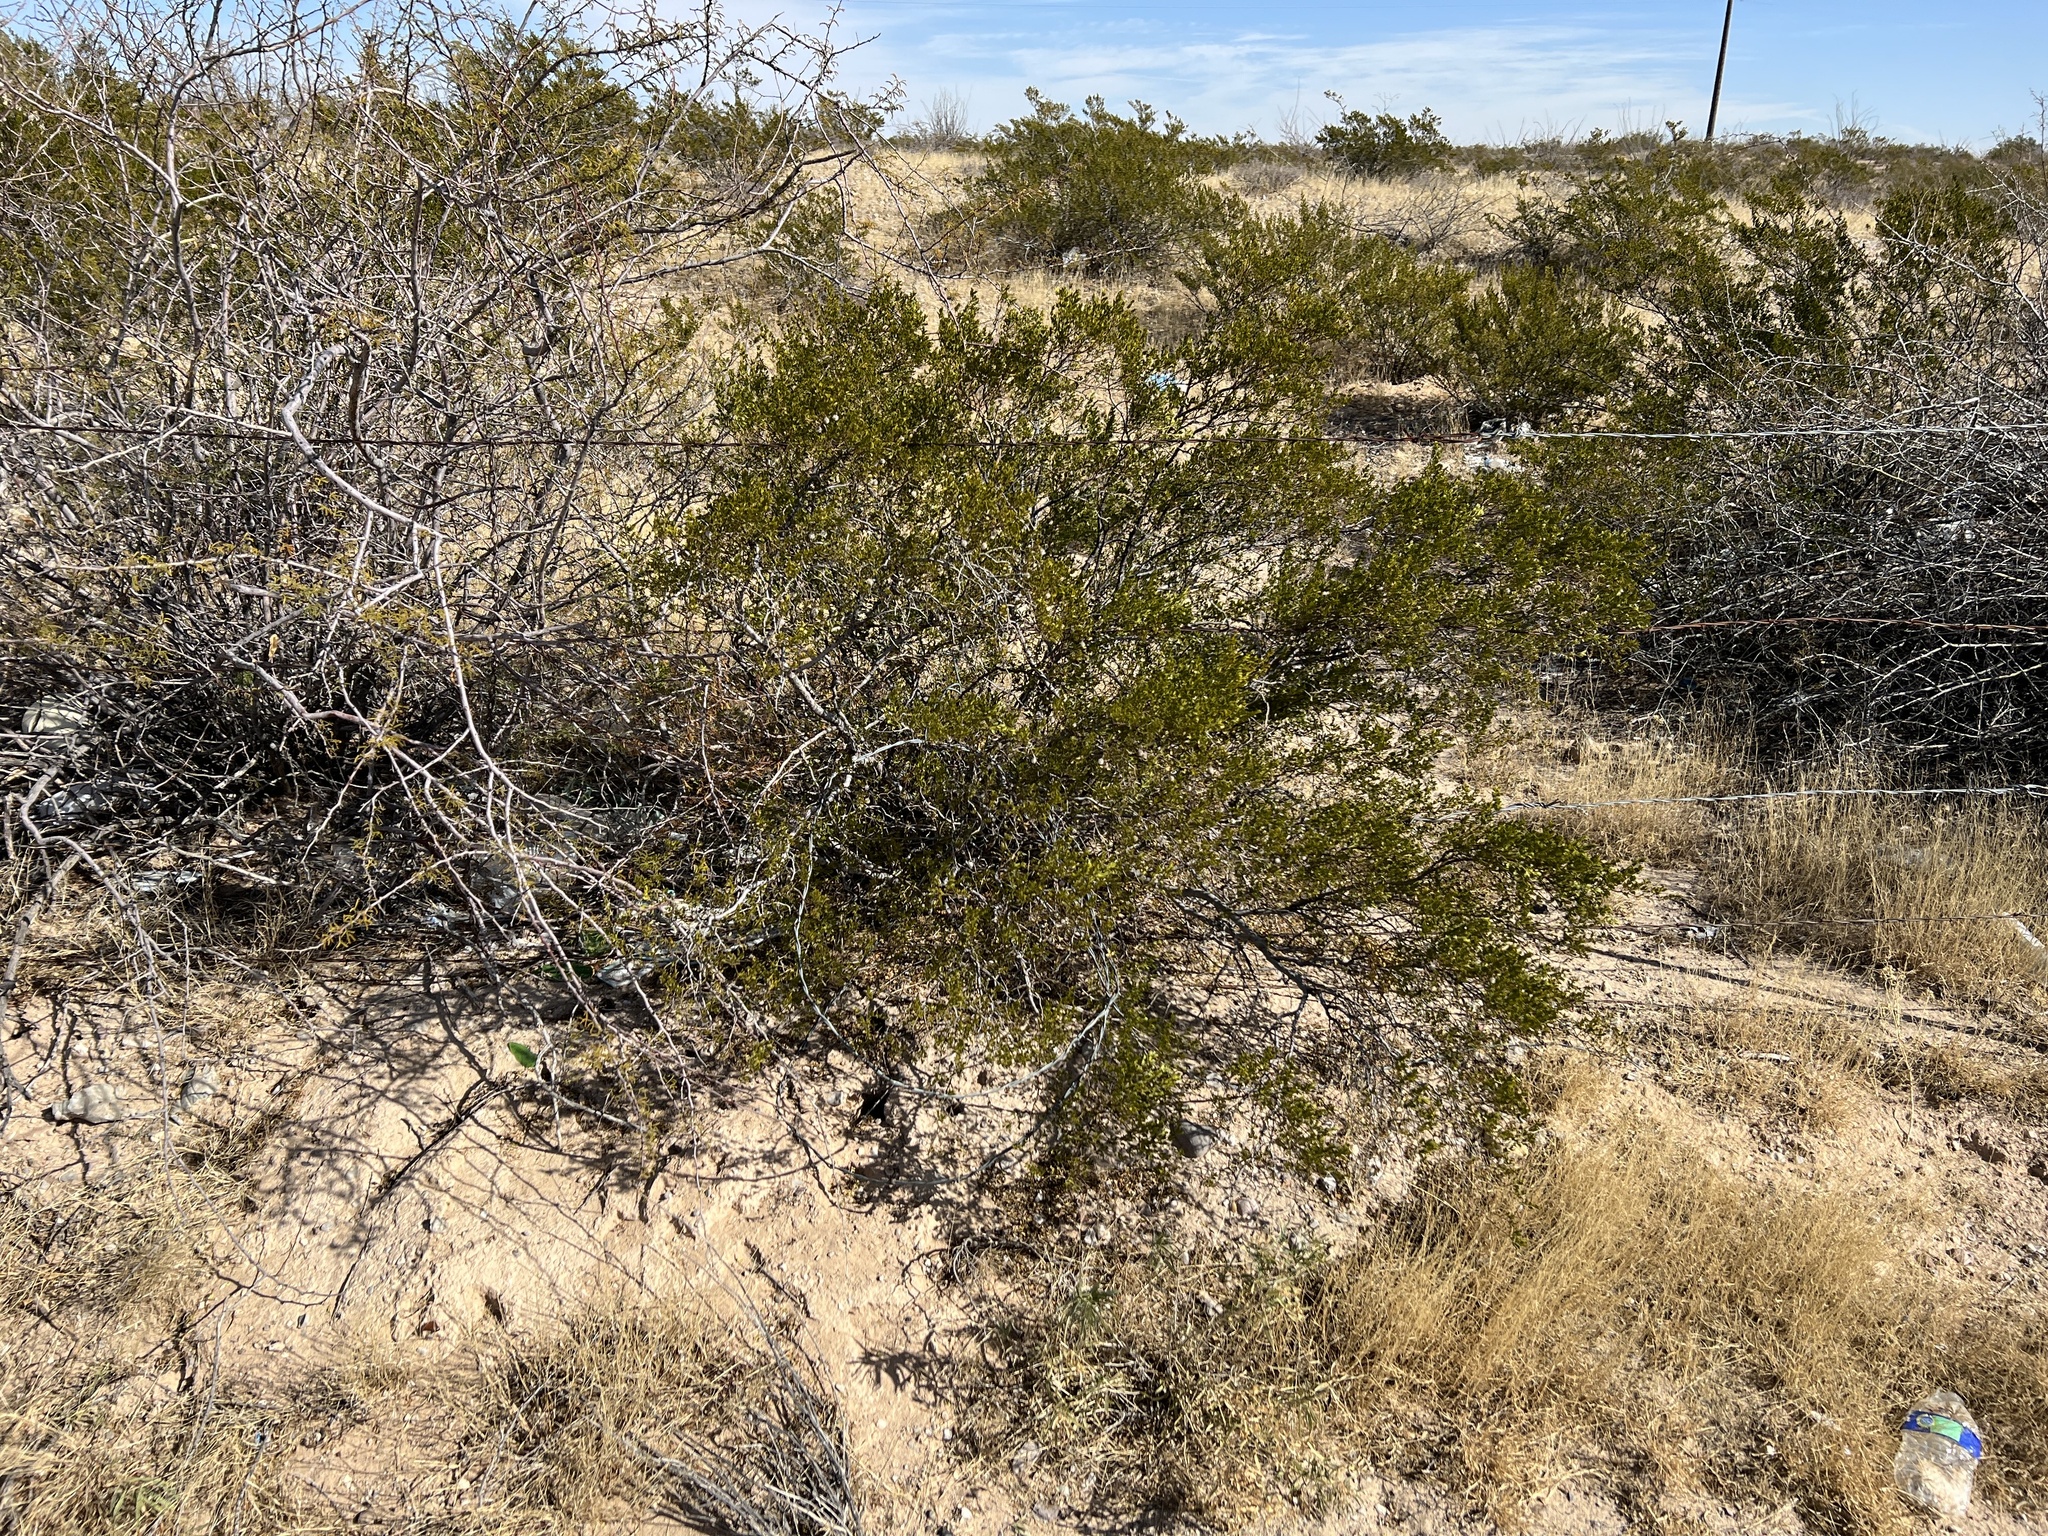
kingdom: Plantae
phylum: Tracheophyta
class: Magnoliopsida
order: Zygophyllales
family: Zygophyllaceae
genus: Larrea
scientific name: Larrea tridentata
